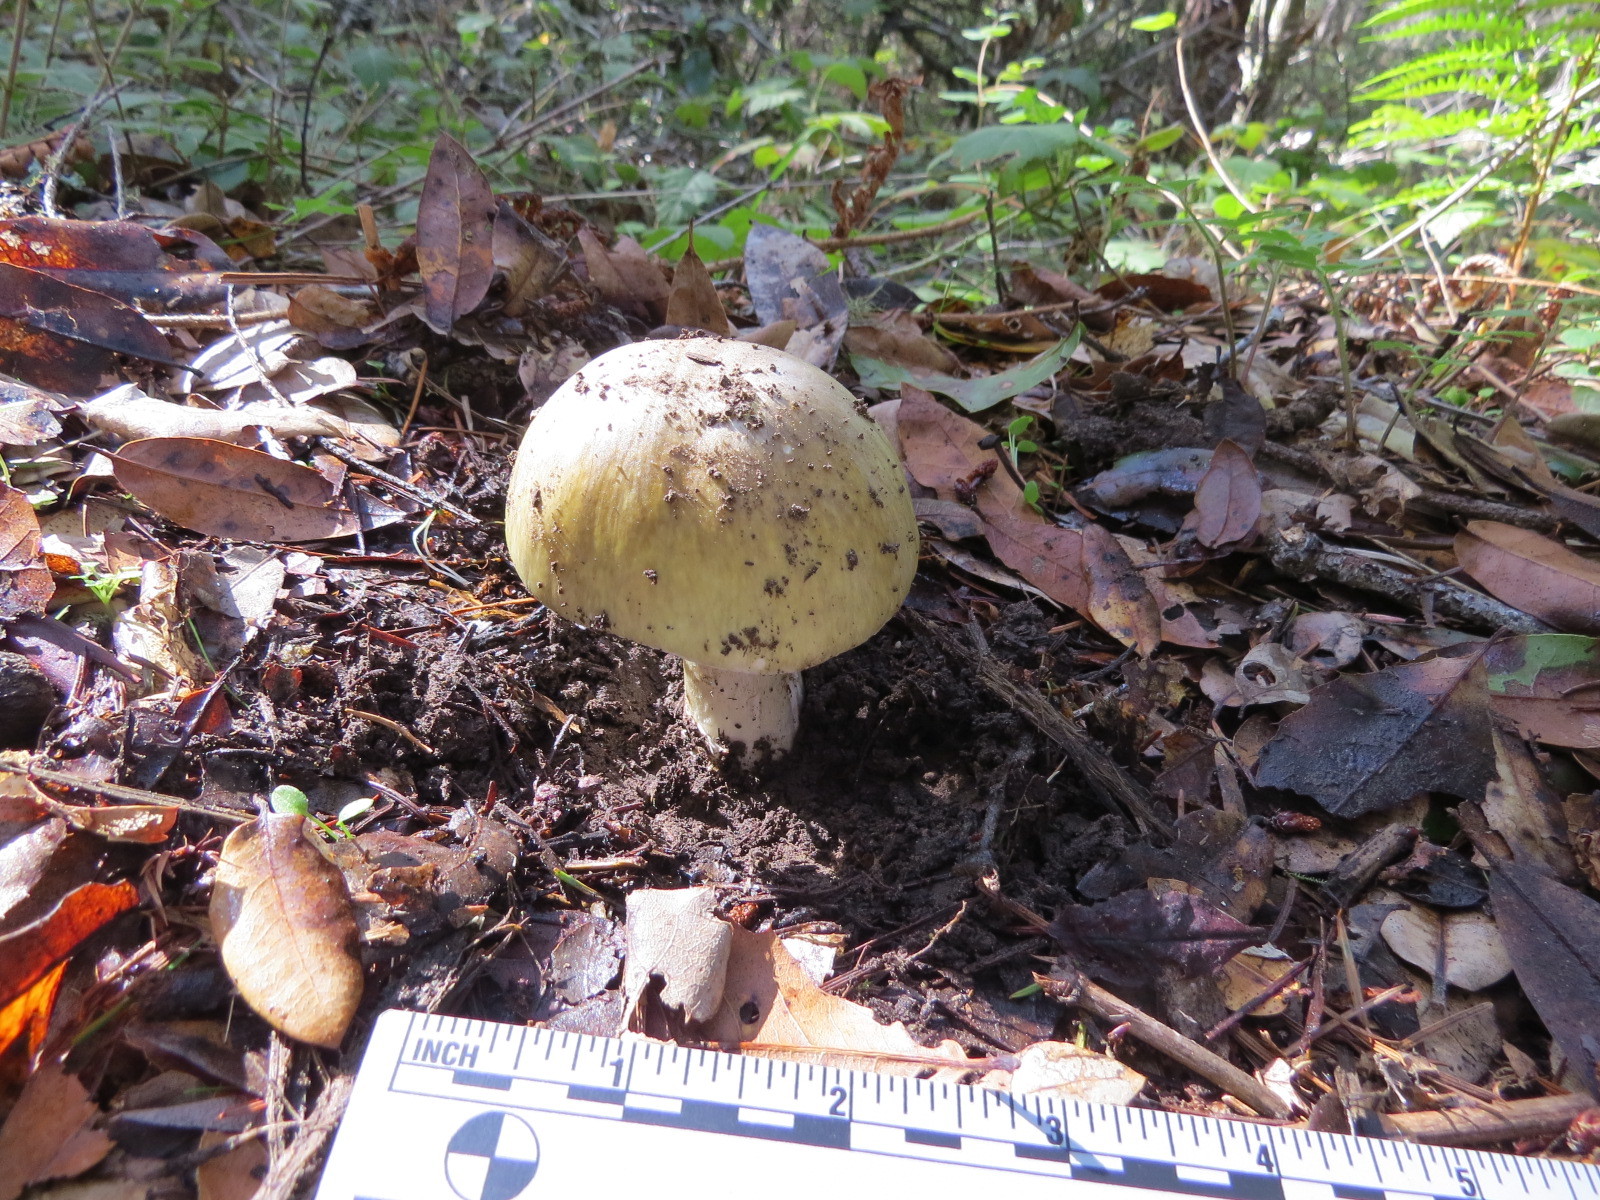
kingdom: Fungi
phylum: Basidiomycota
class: Agaricomycetes
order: Agaricales
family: Amanitaceae
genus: Amanita
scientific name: Amanita phalloides
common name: Death cap
